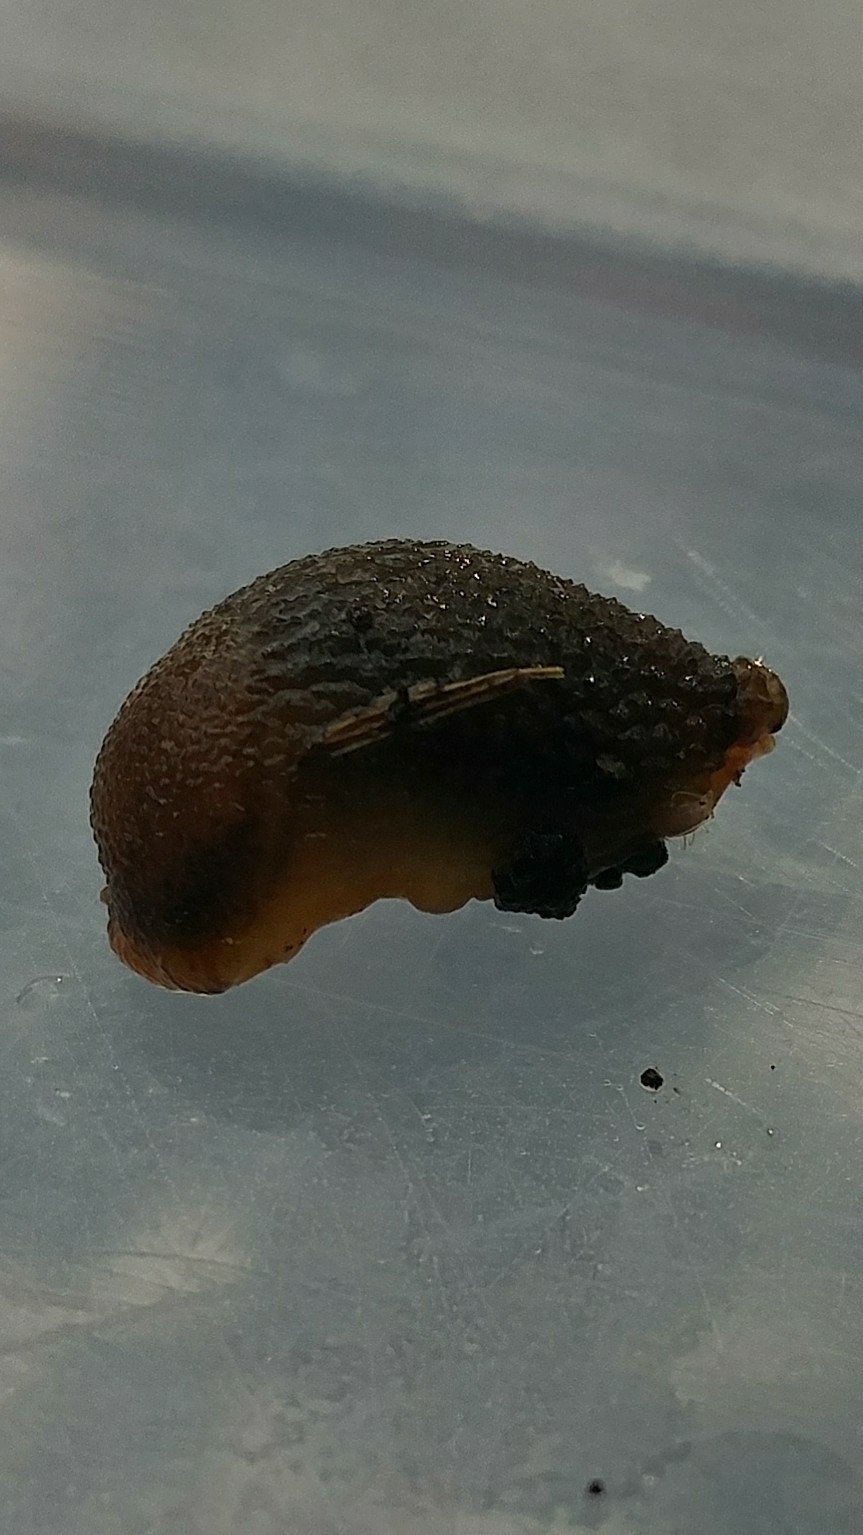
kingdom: Animalia
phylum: Mollusca
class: Gastropoda
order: Stylommatophora
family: Arionidae
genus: Arion
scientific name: Arion intermedius
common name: Hedgehog slug
